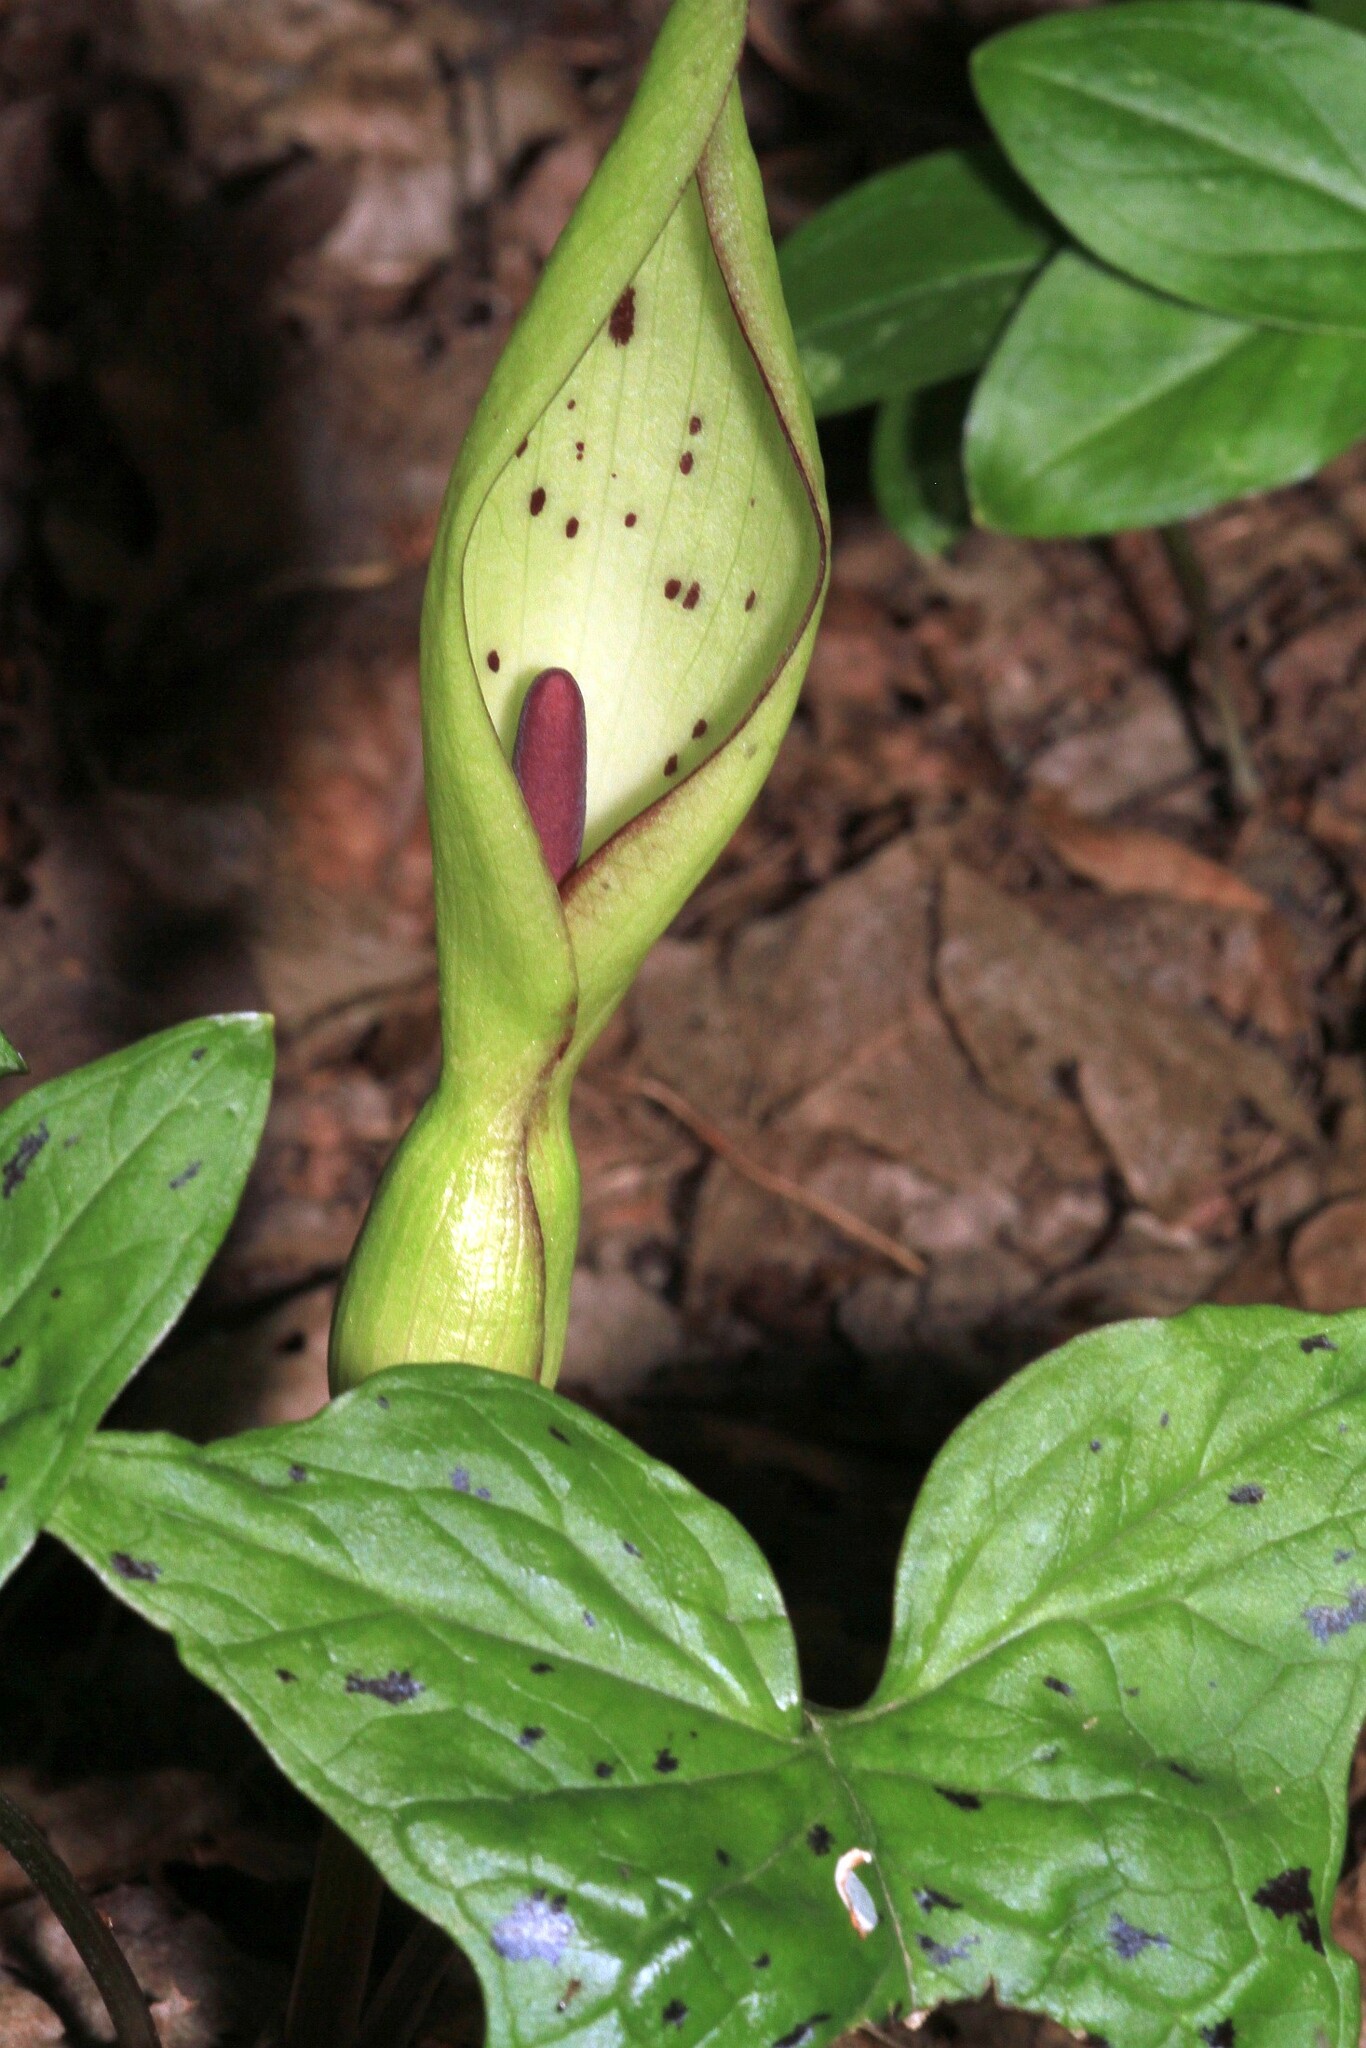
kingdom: Plantae
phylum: Tracheophyta
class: Liliopsida
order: Alismatales
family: Araceae
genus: Arum
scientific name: Arum maculatum
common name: Lords-and-ladies
